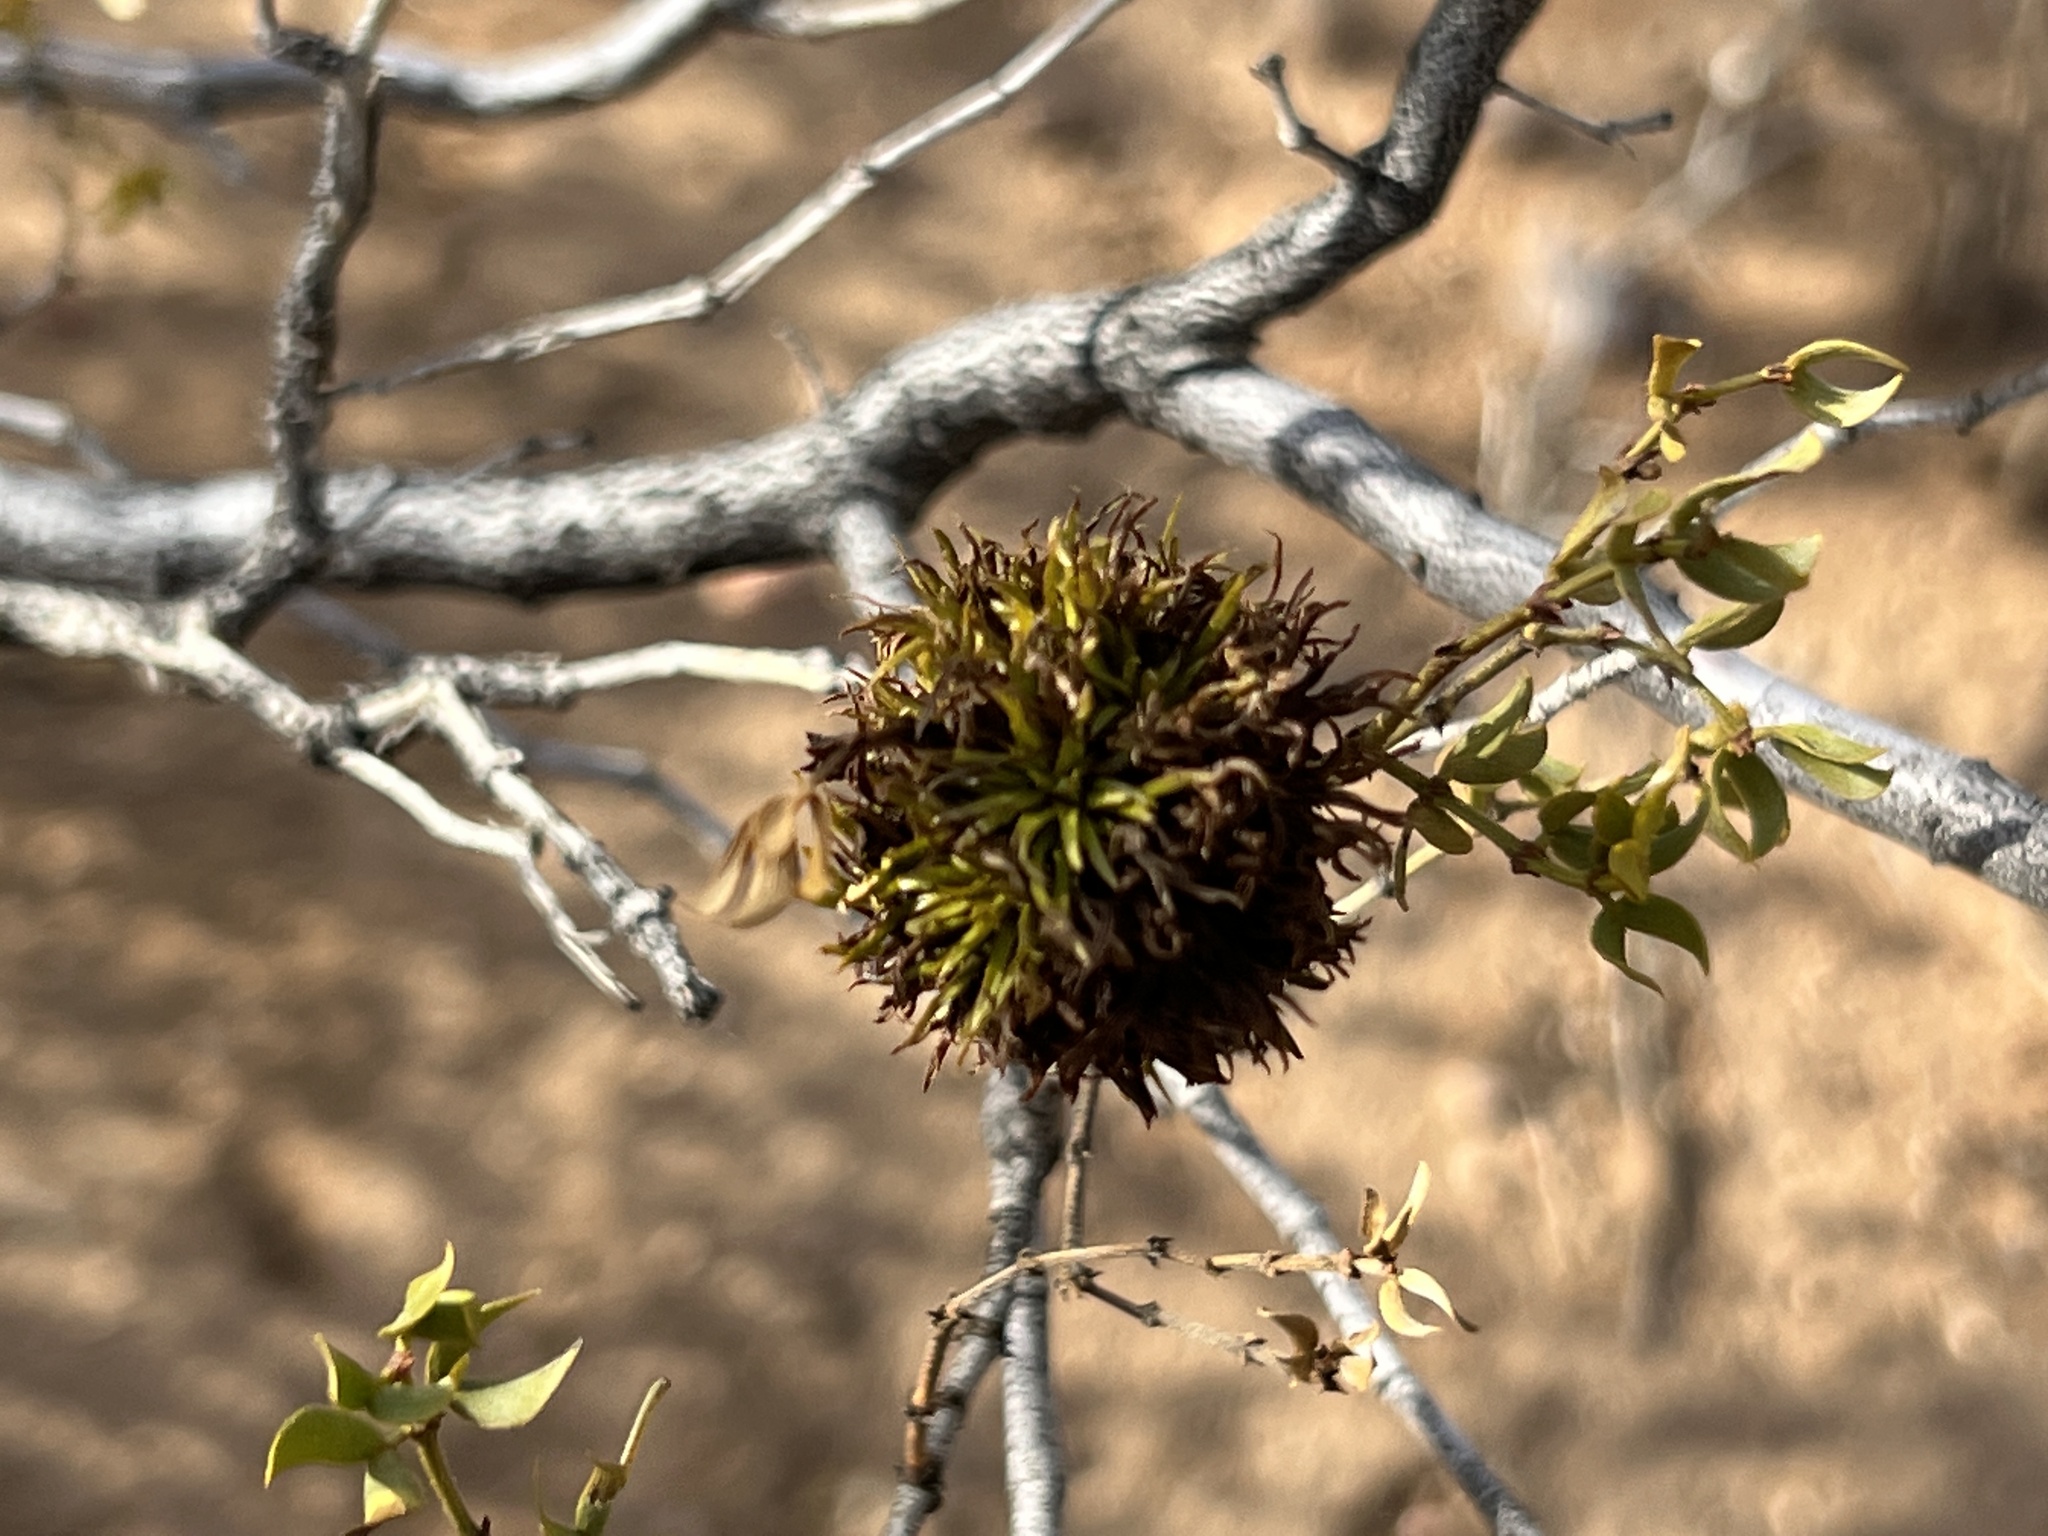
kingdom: Animalia
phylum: Arthropoda
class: Insecta
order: Diptera
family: Cecidomyiidae
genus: Asphondylia
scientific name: Asphondylia auripila
